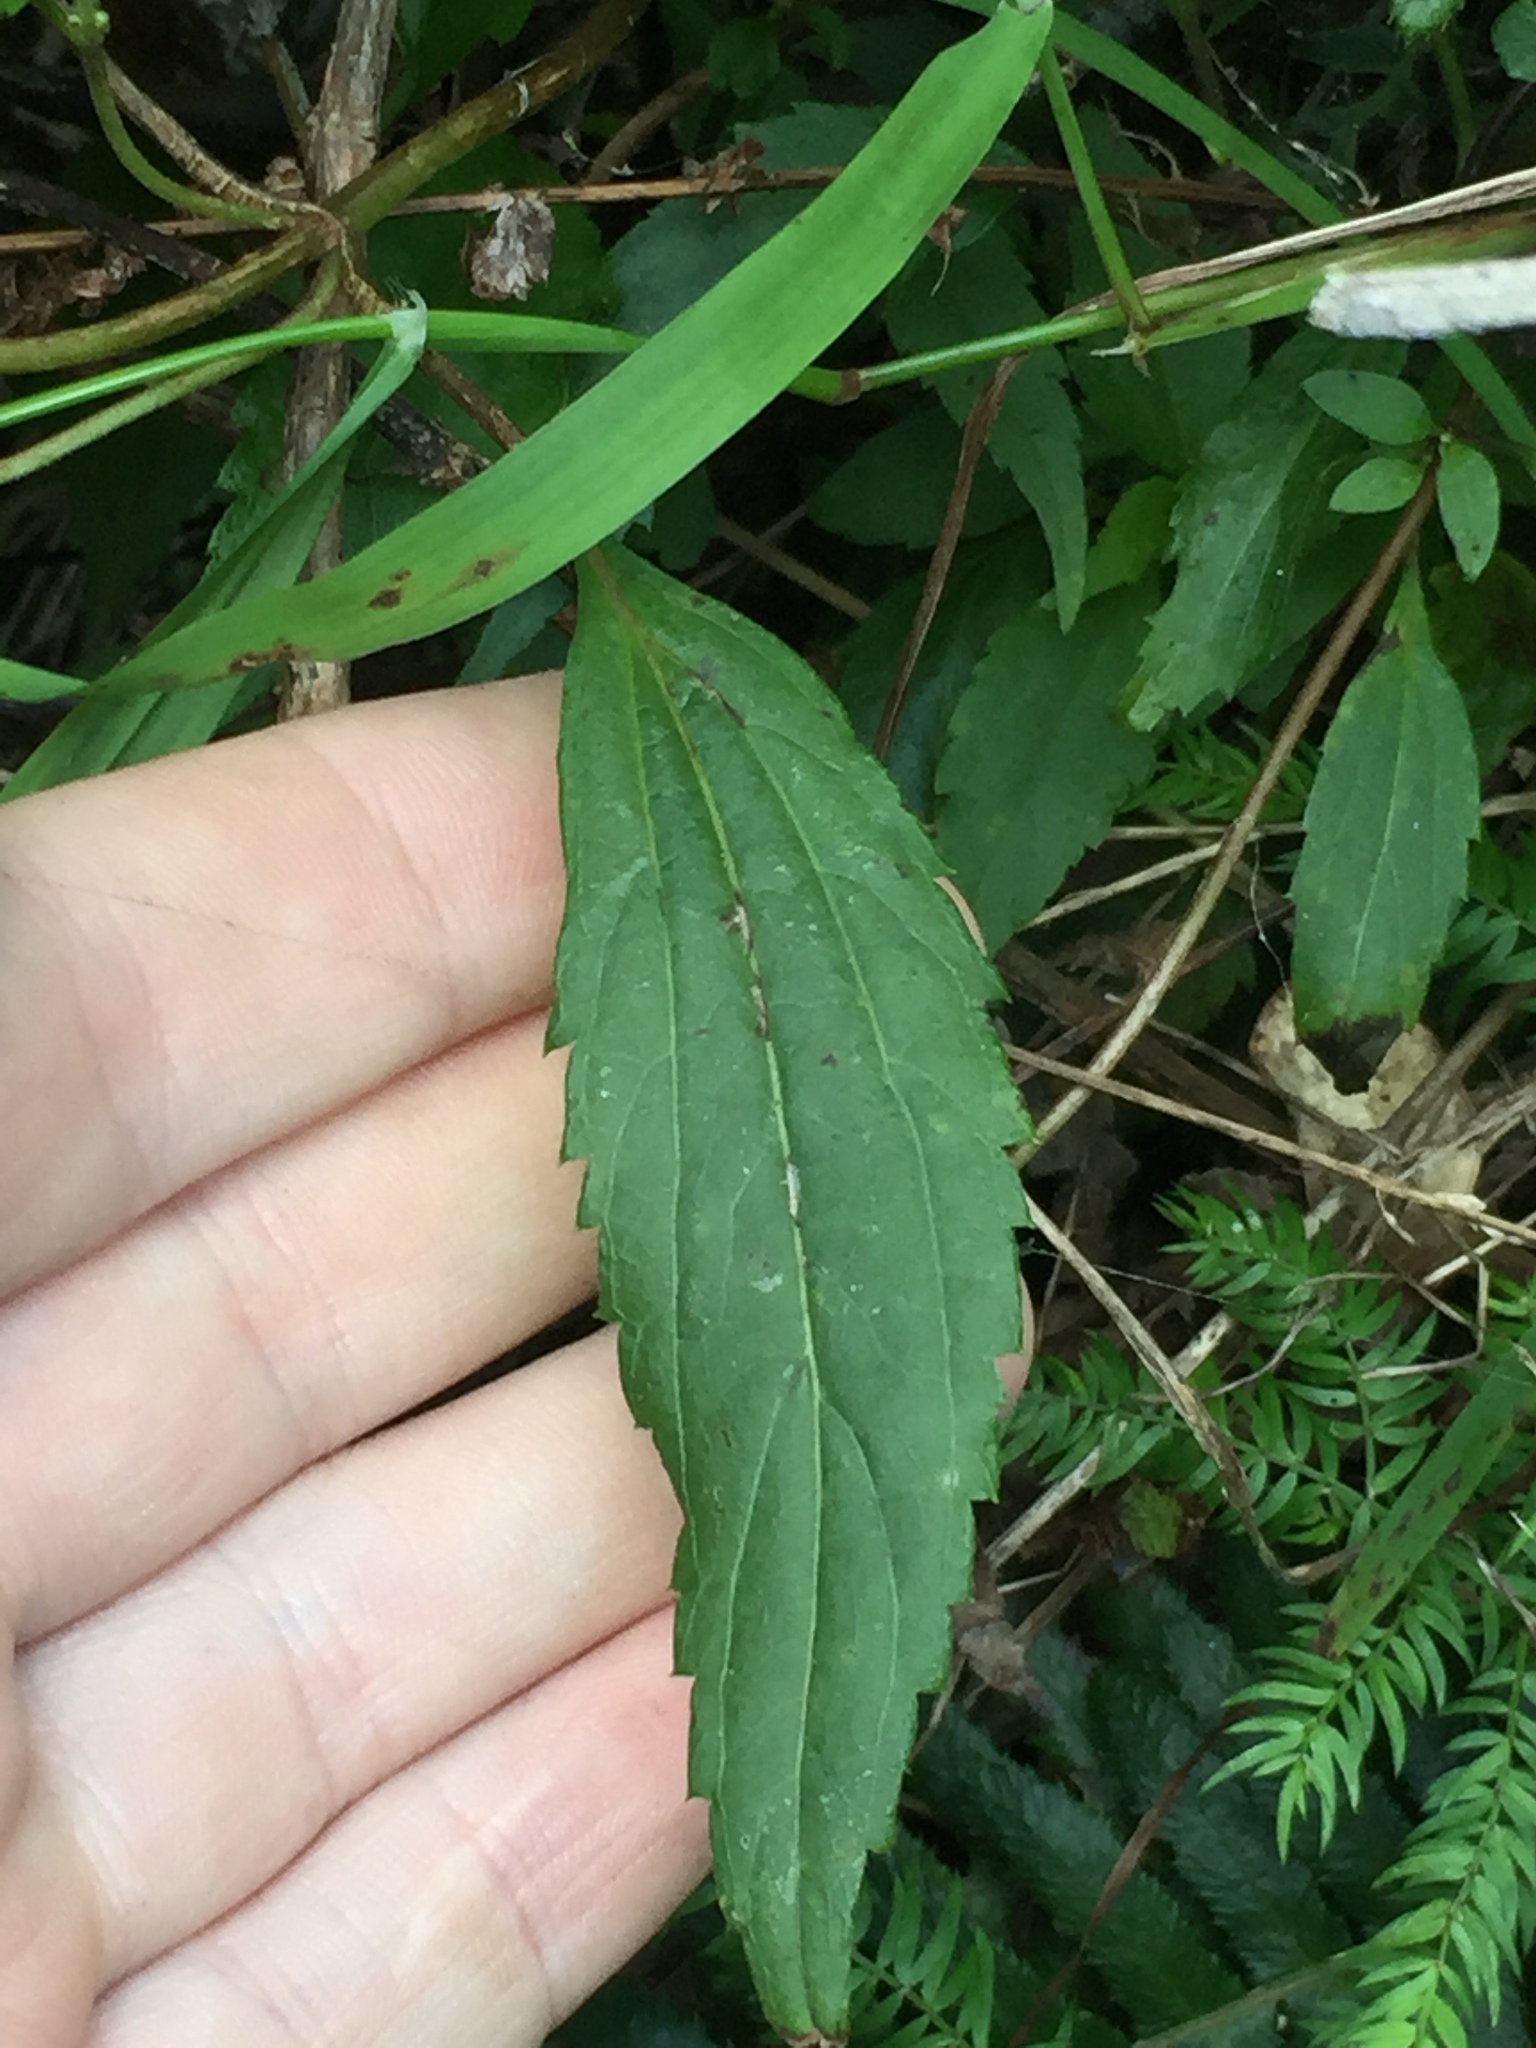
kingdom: Plantae
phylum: Tracheophyta
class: Magnoliopsida
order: Asterales
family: Asteraceae
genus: Ageratina
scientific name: Ageratina riparia
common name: Creeping croftonweed
